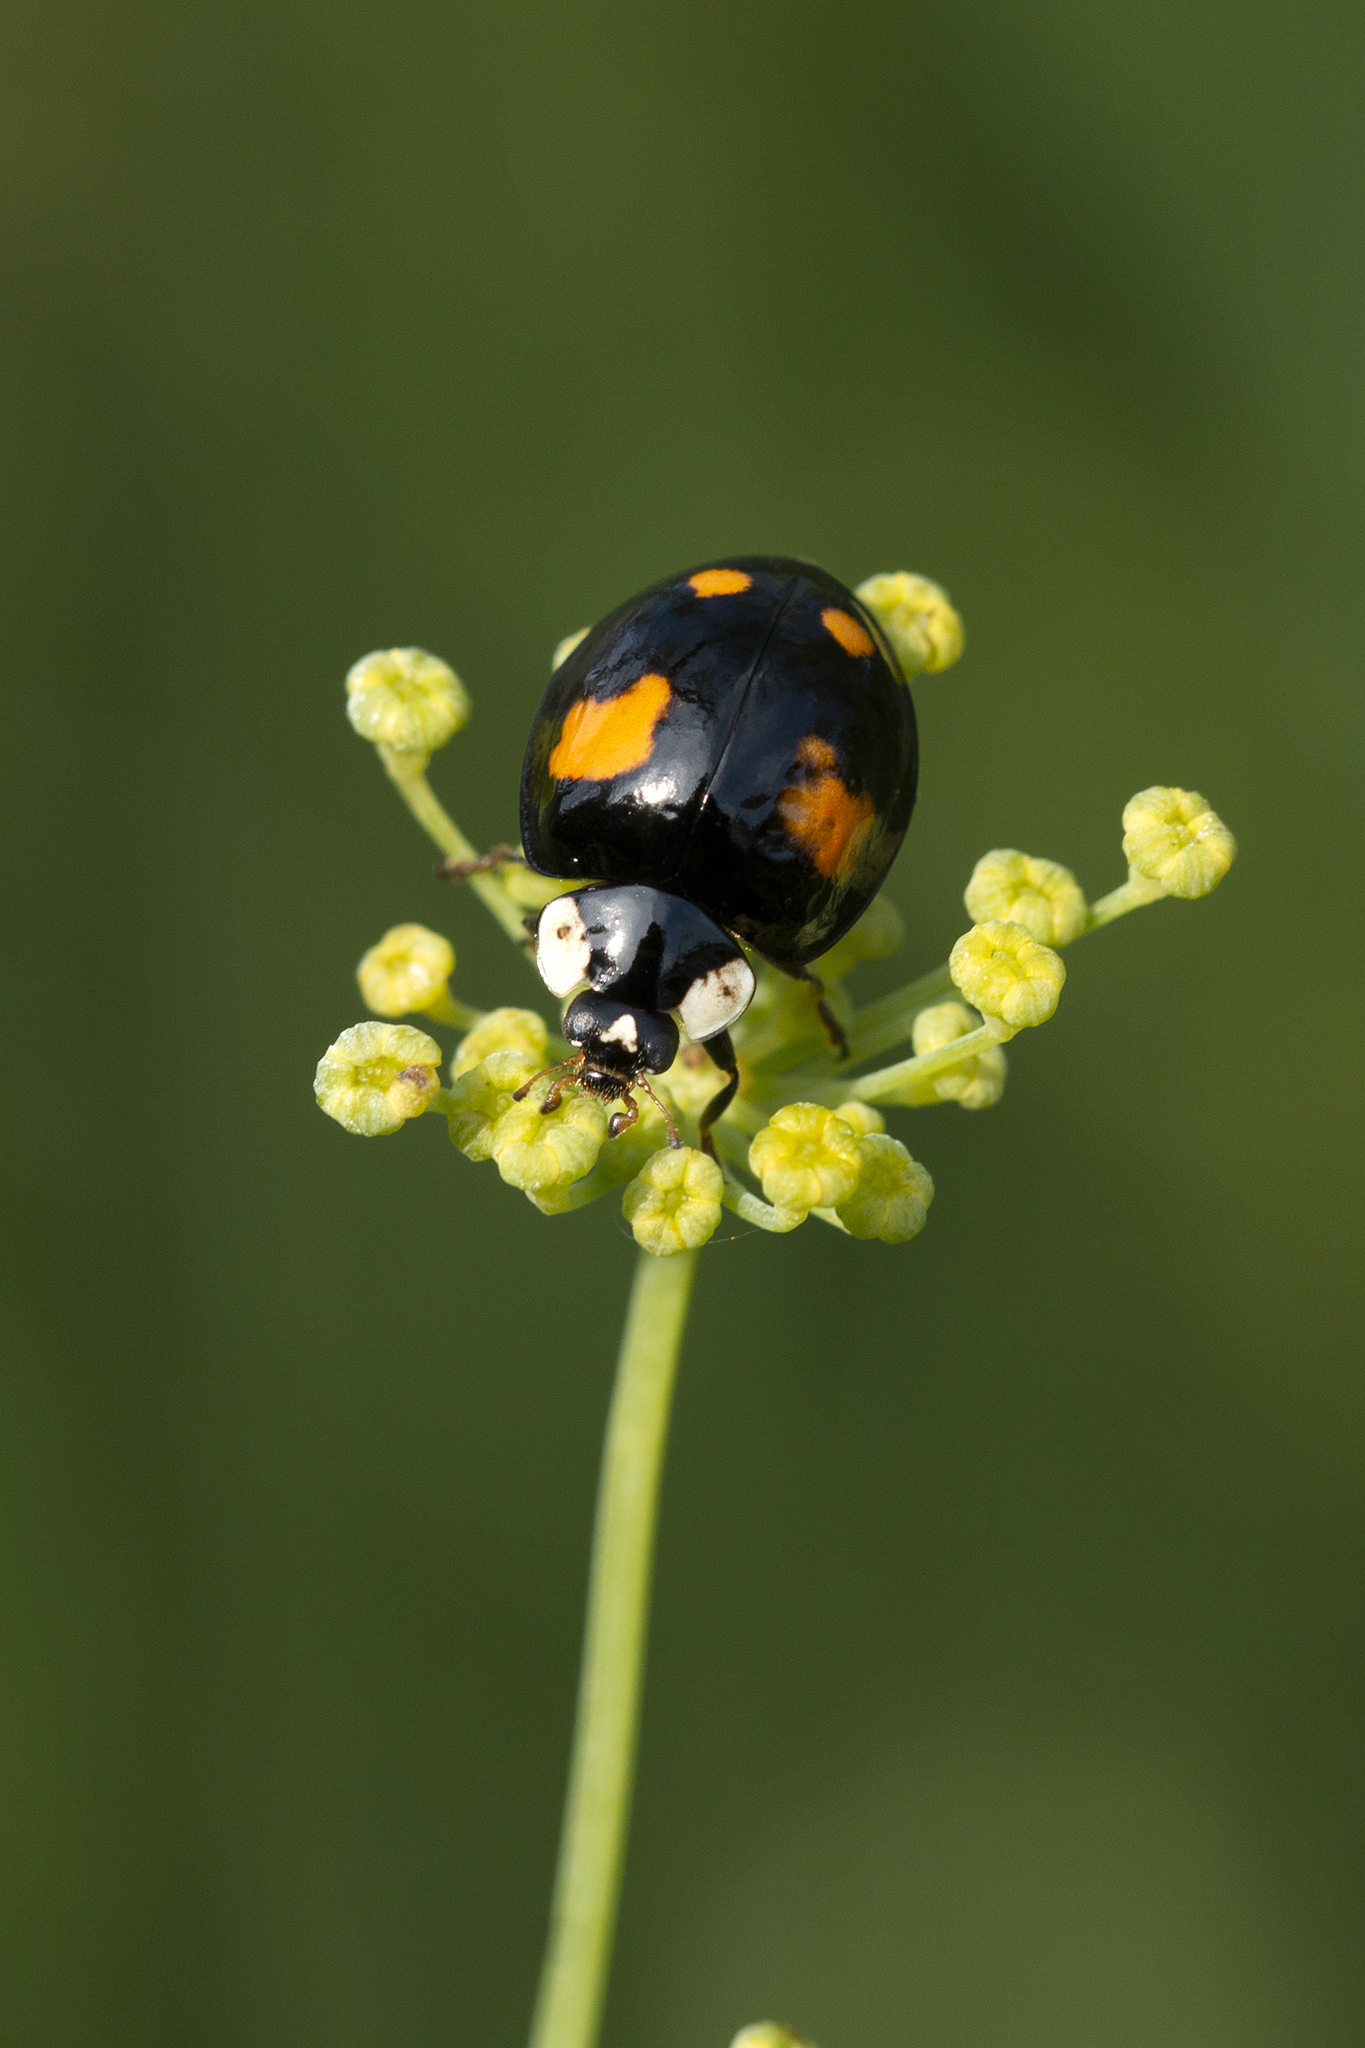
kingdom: Animalia
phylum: Arthropoda
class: Insecta
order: Coleoptera
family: Coccinellidae
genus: Harmonia
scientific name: Harmonia axyridis
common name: Harlequin ladybird
